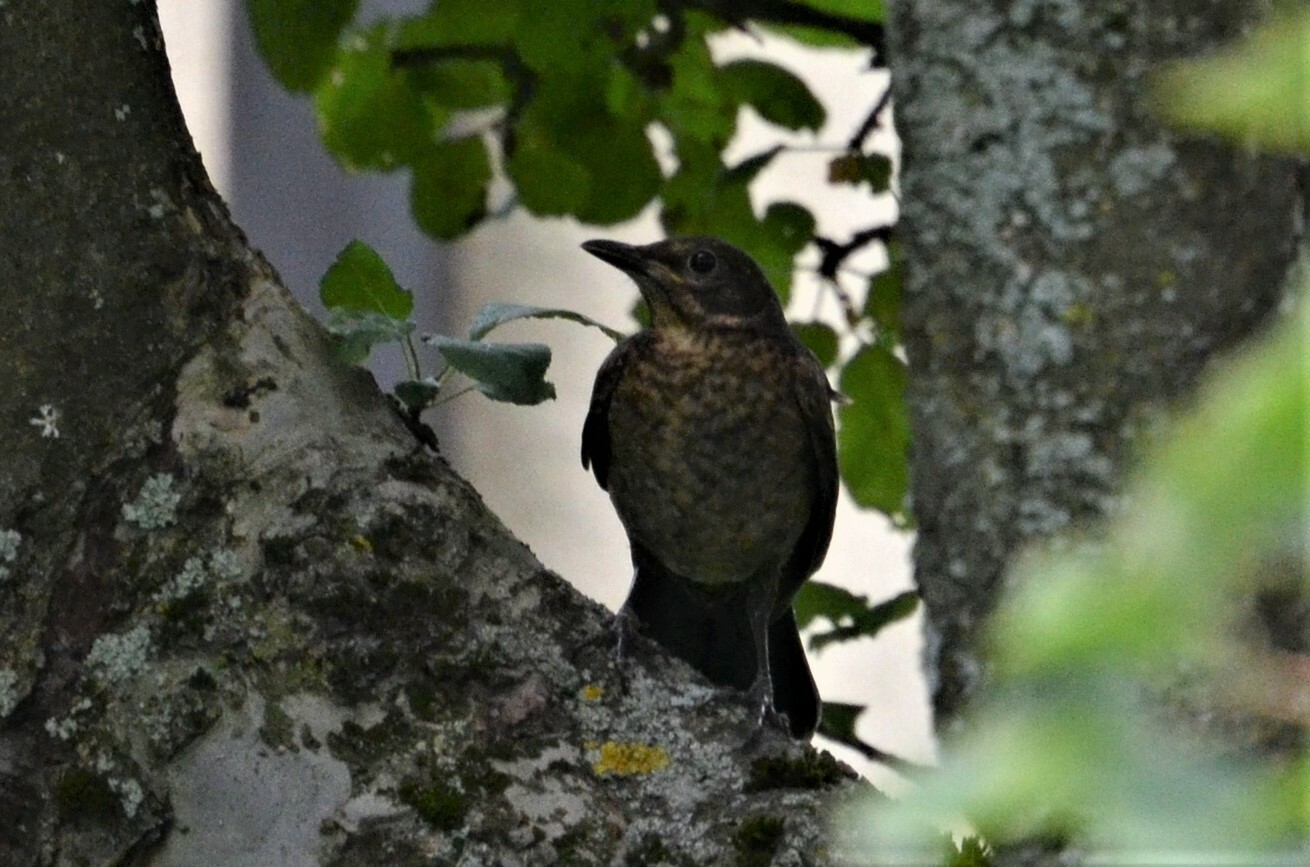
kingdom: Animalia
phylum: Chordata
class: Aves
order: Passeriformes
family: Turdidae
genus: Turdus
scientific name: Turdus merula
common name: Common blackbird
